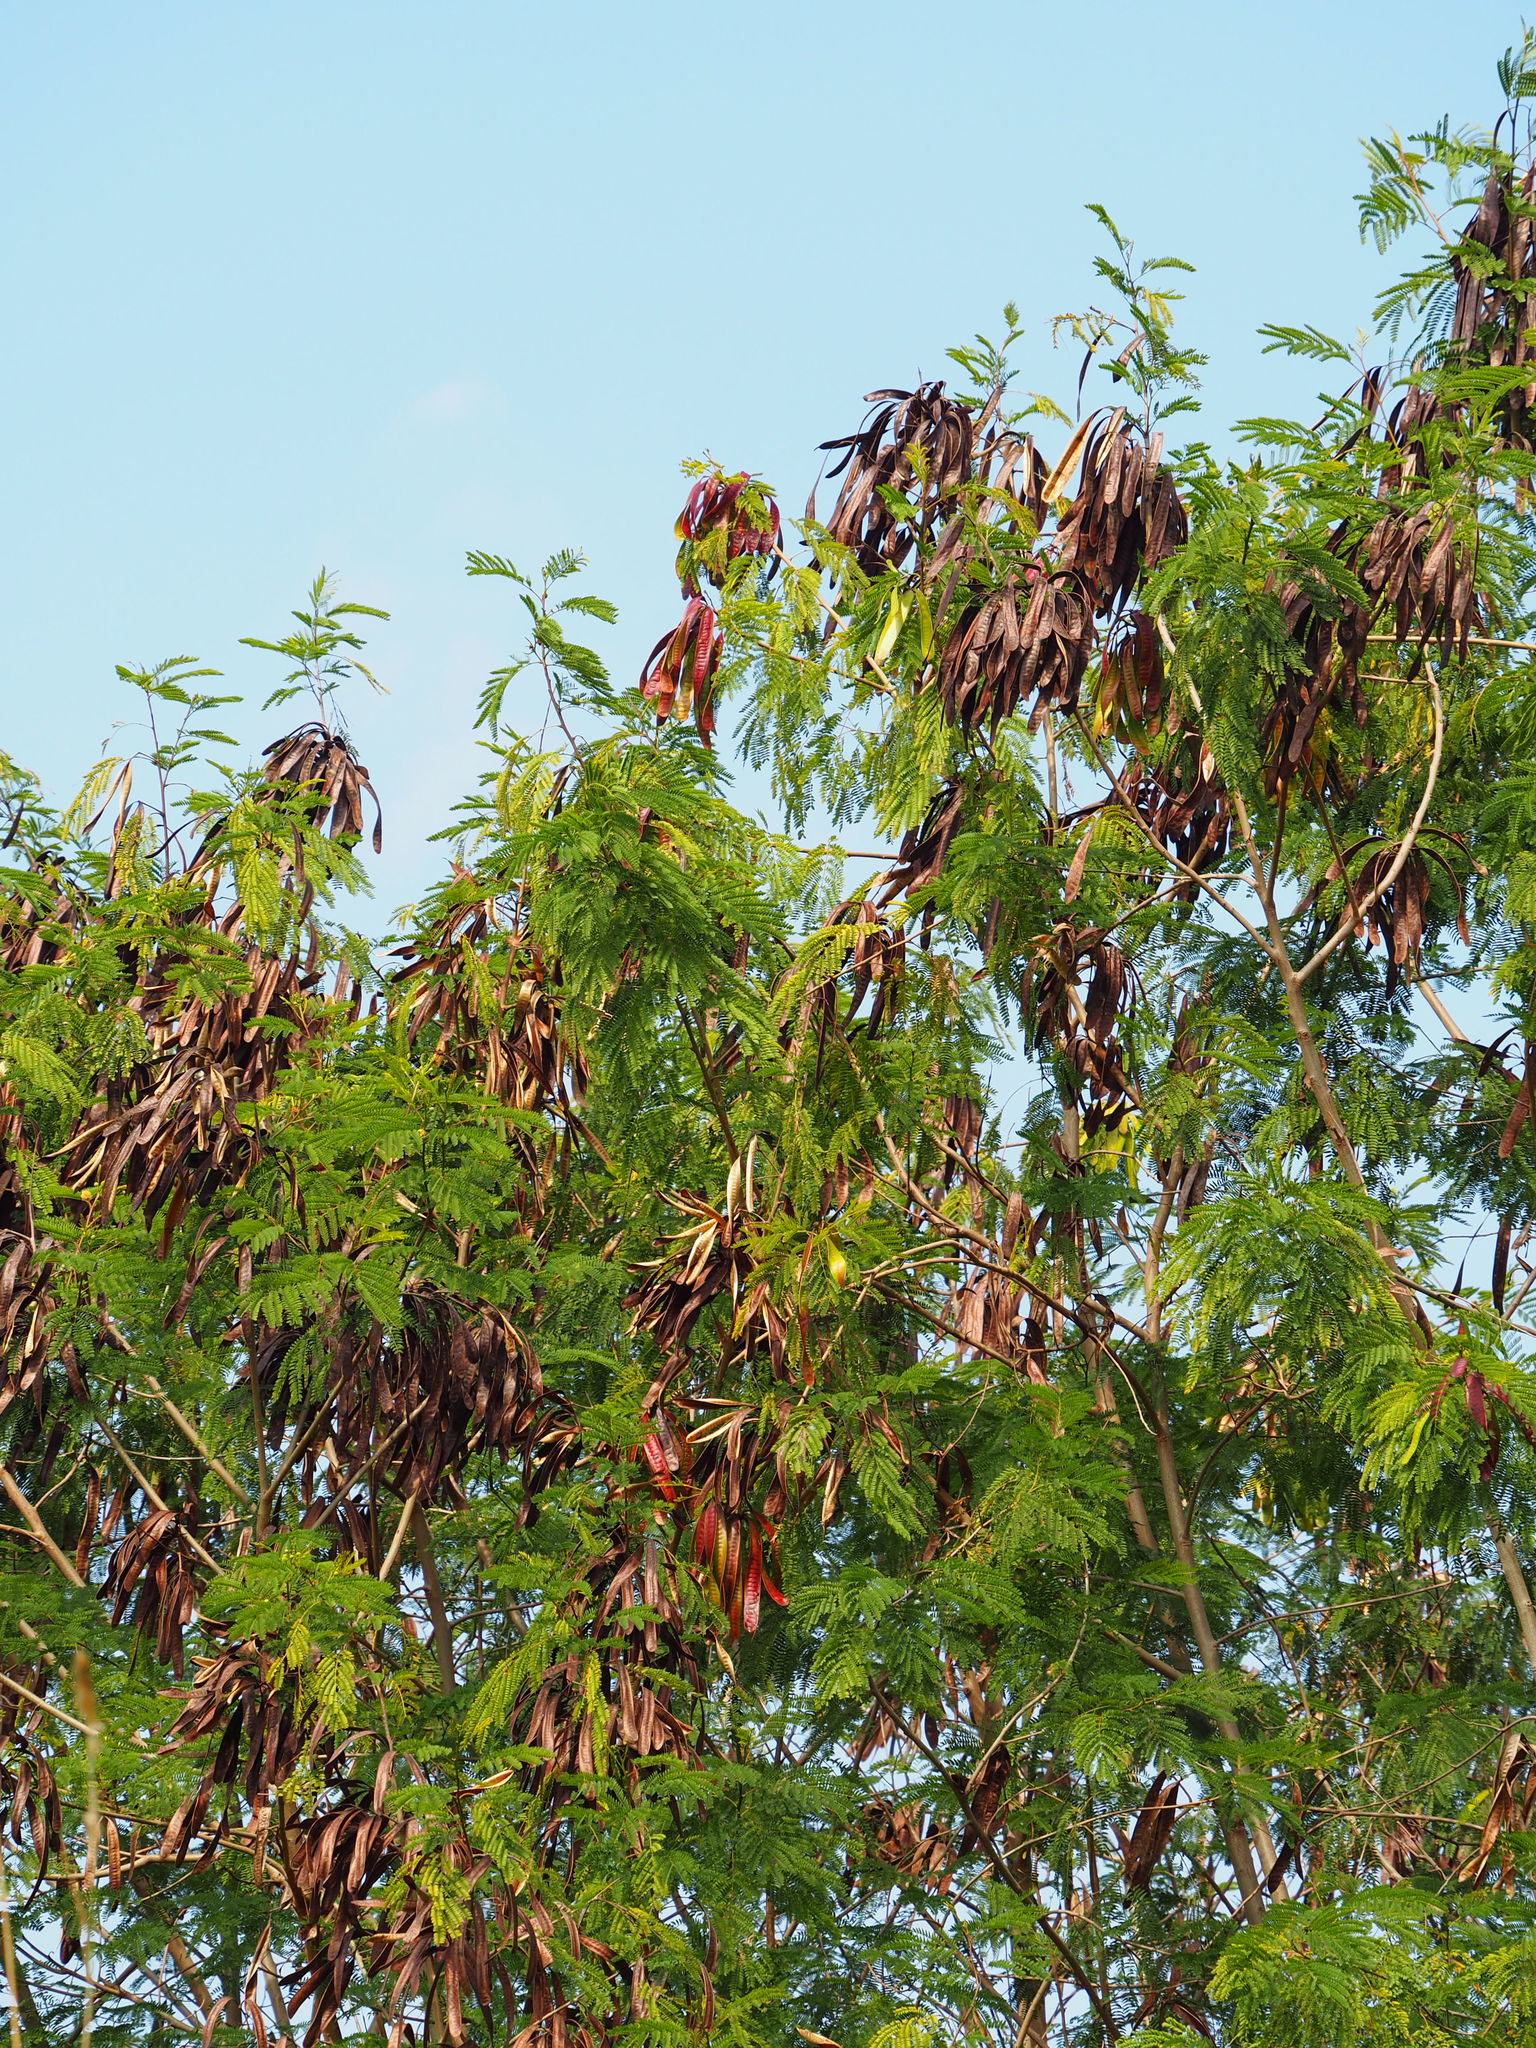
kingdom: Plantae
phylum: Tracheophyta
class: Magnoliopsida
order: Fabales
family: Fabaceae
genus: Leucaena
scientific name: Leucaena leucocephala
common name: White leadtree
